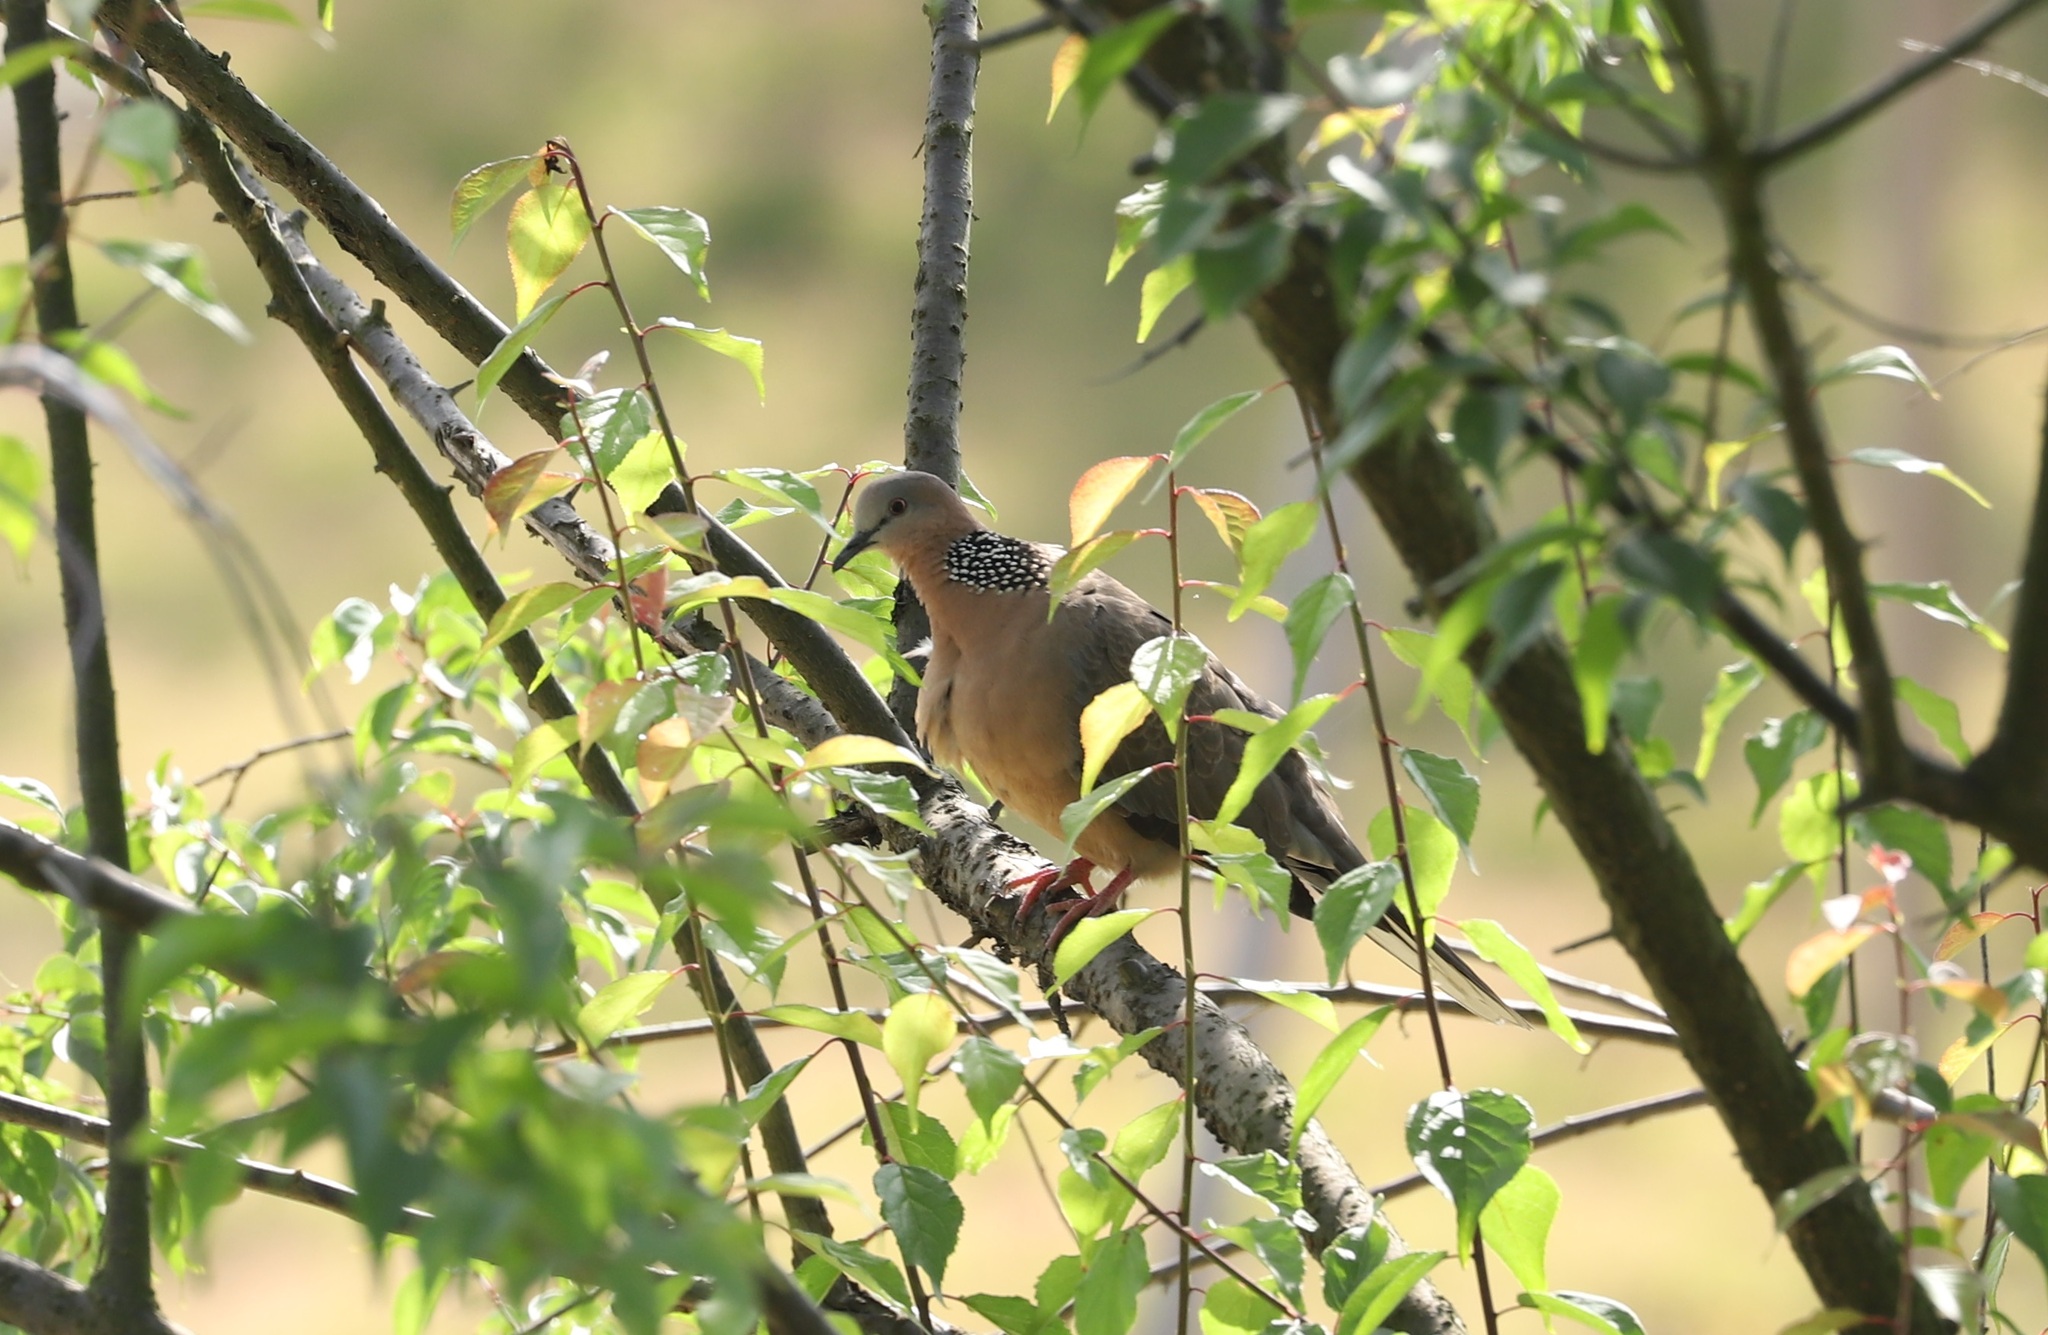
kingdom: Animalia
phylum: Chordata
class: Aves
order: Columbiformes
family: Columbidae
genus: Spilopelia
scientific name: Spilopelia chinensis
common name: Spotted dove
